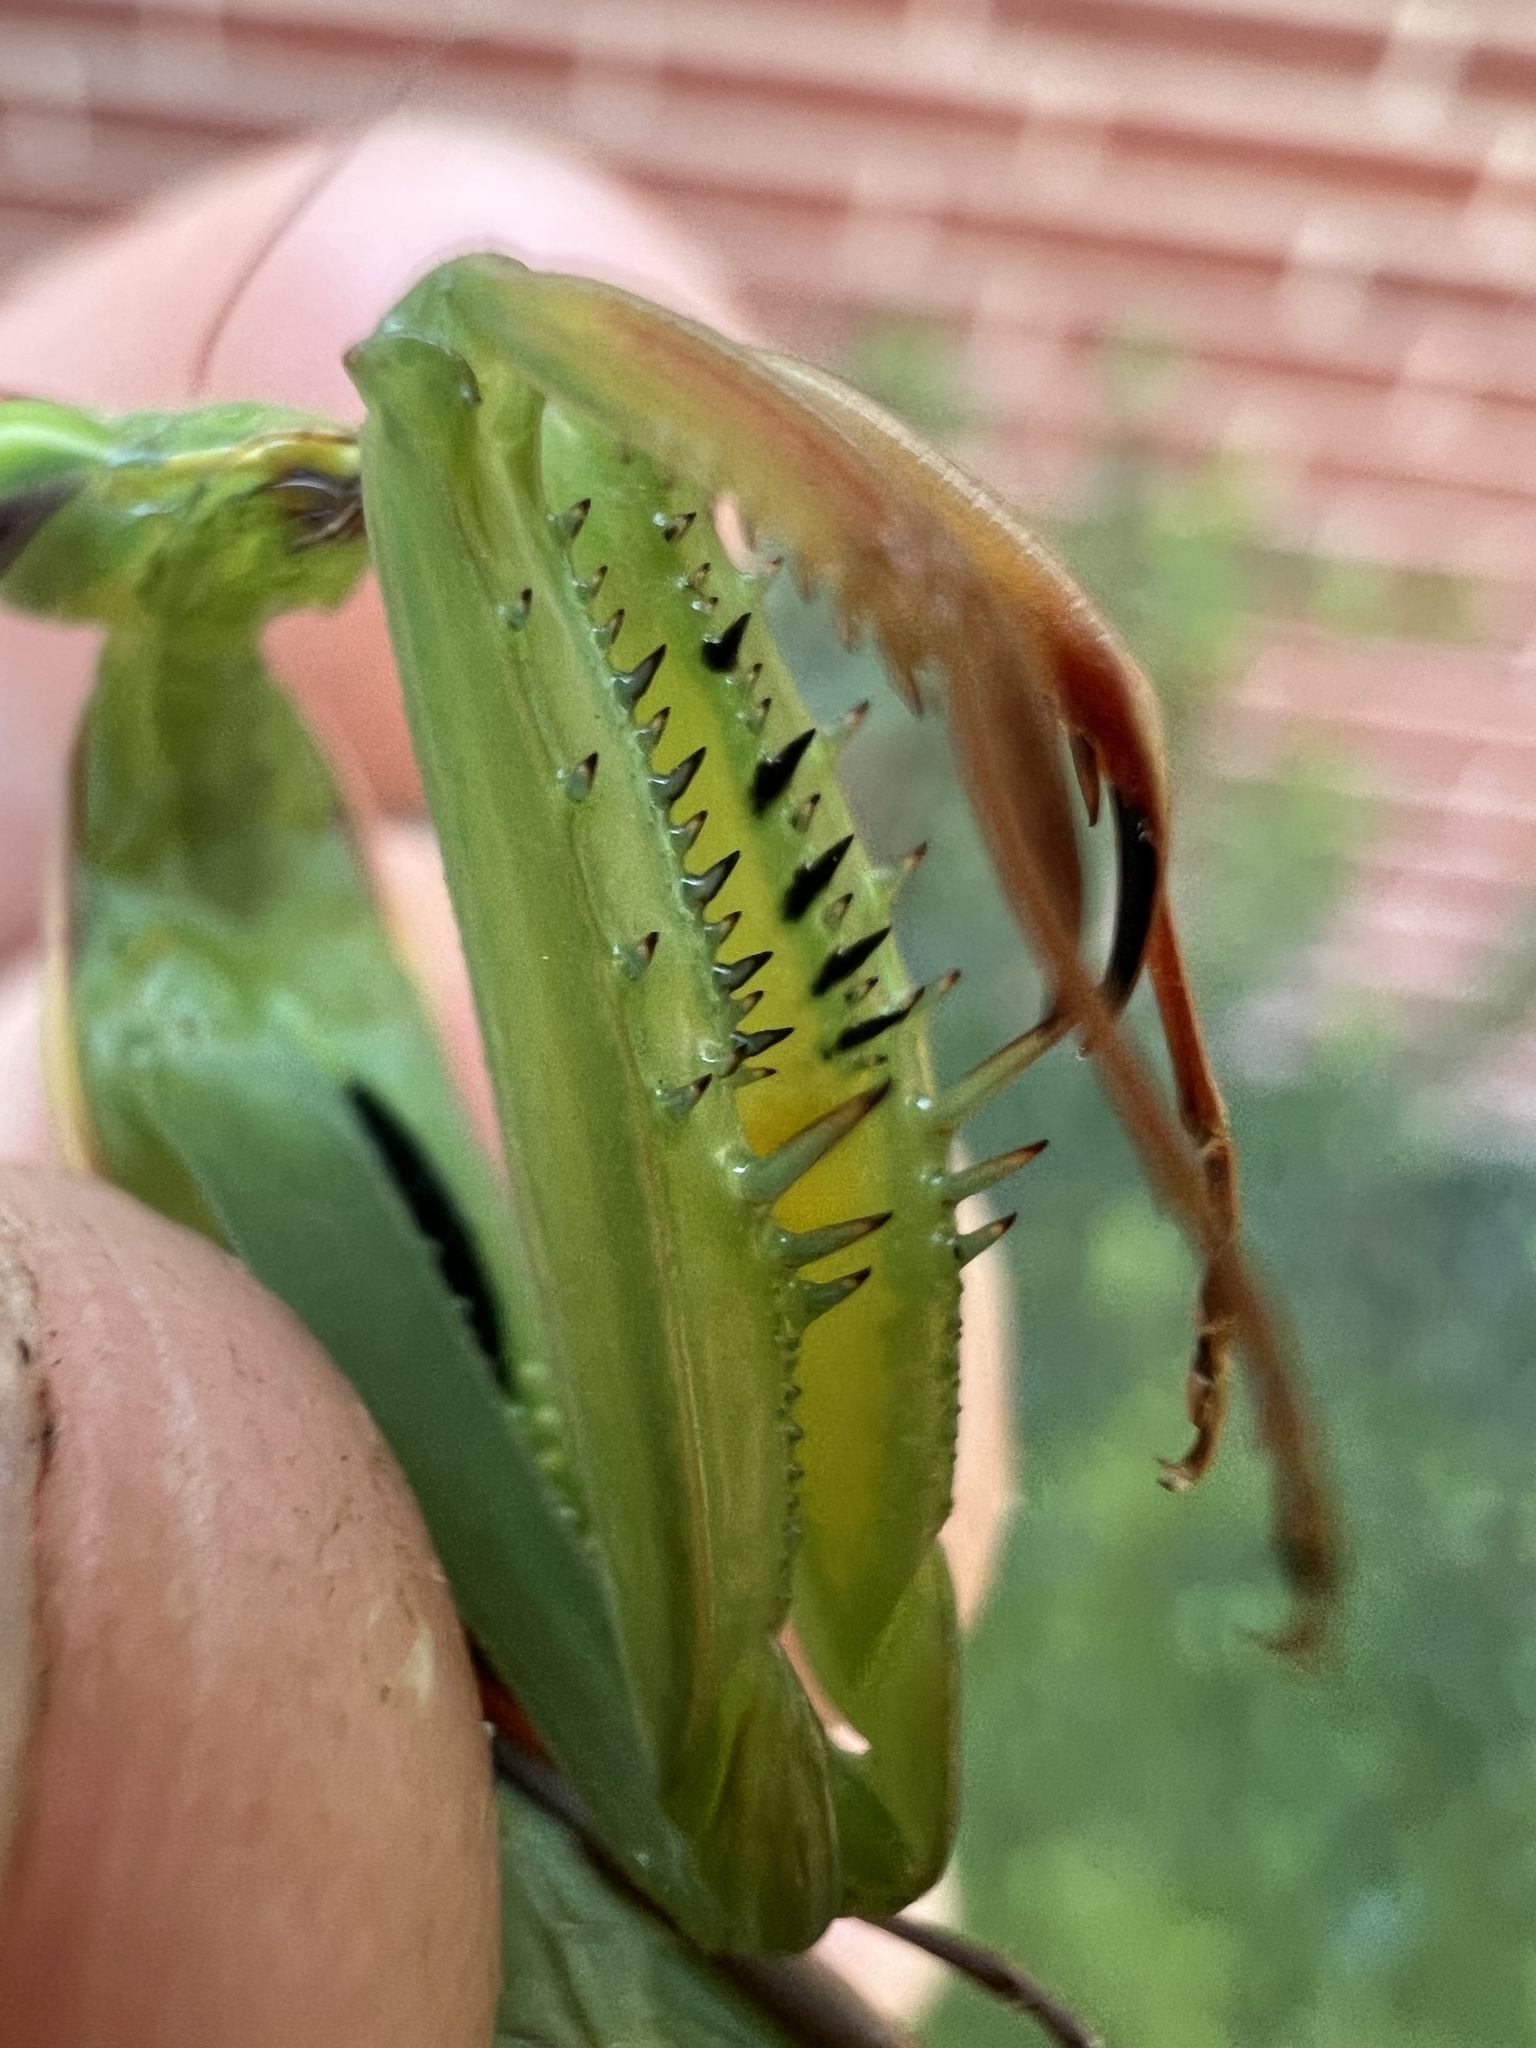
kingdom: Animalia
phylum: Arthropoda
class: Insecta
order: Mantodea
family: Mantidae
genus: Mantis
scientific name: Mantis religiosa
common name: Praying mantis
